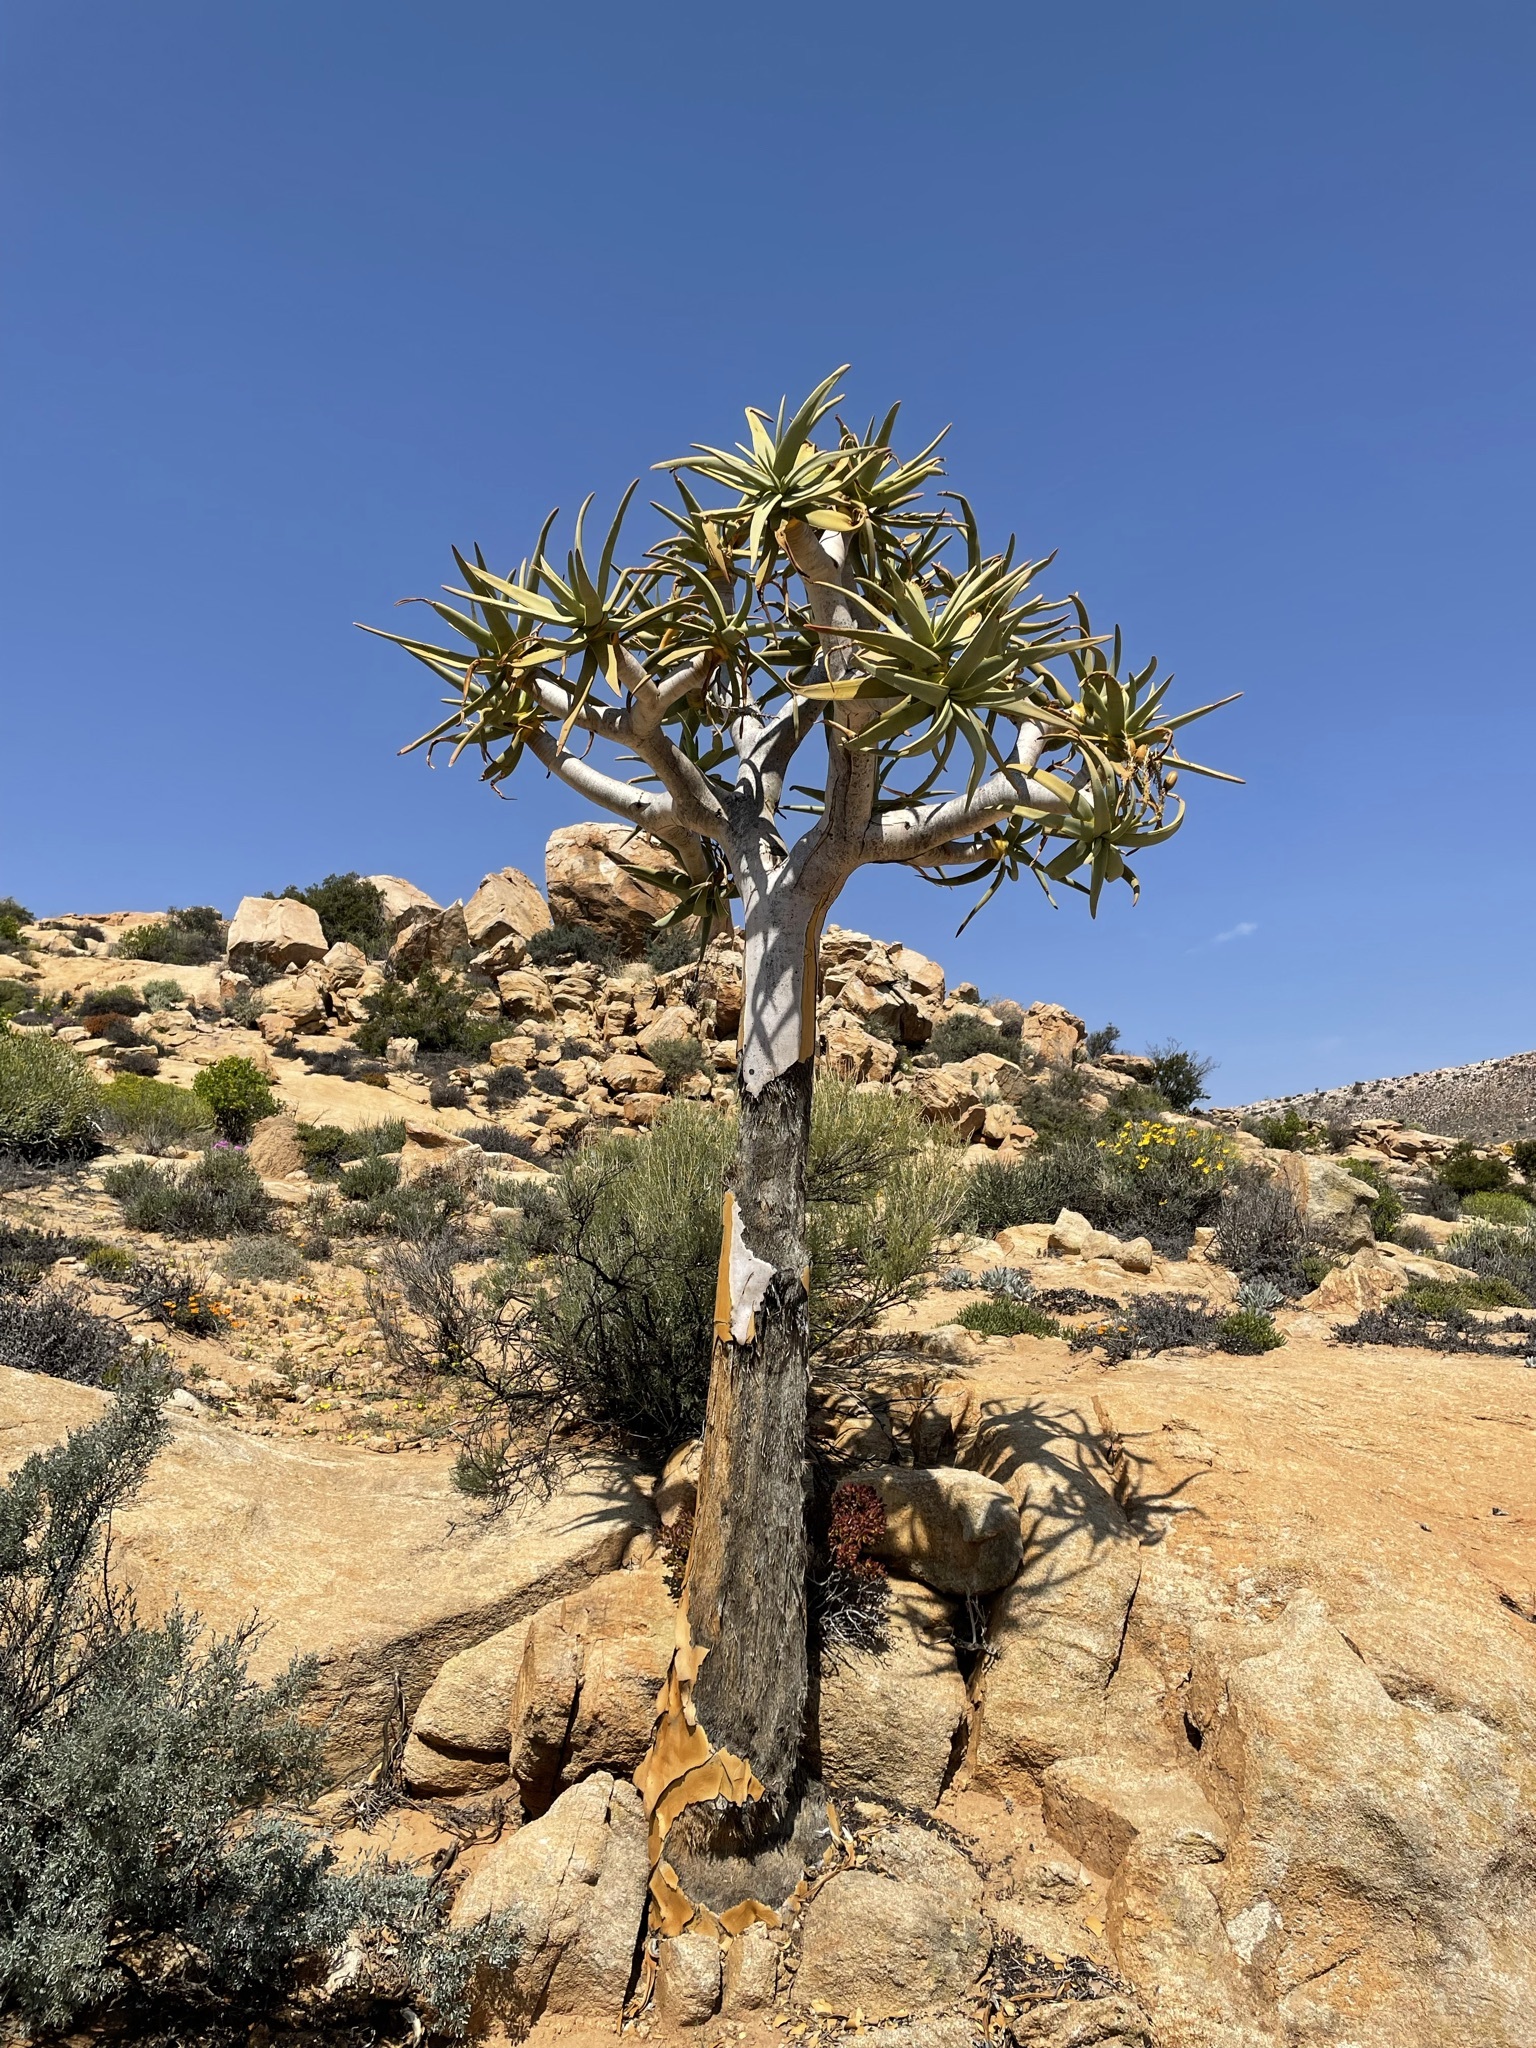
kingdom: Plantae
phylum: Tracheophyta
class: Liliopsida
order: Asparagales
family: Asphodelaceae
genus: Aloidendron
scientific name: Aloidendron dichotomum
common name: Quiver tree
